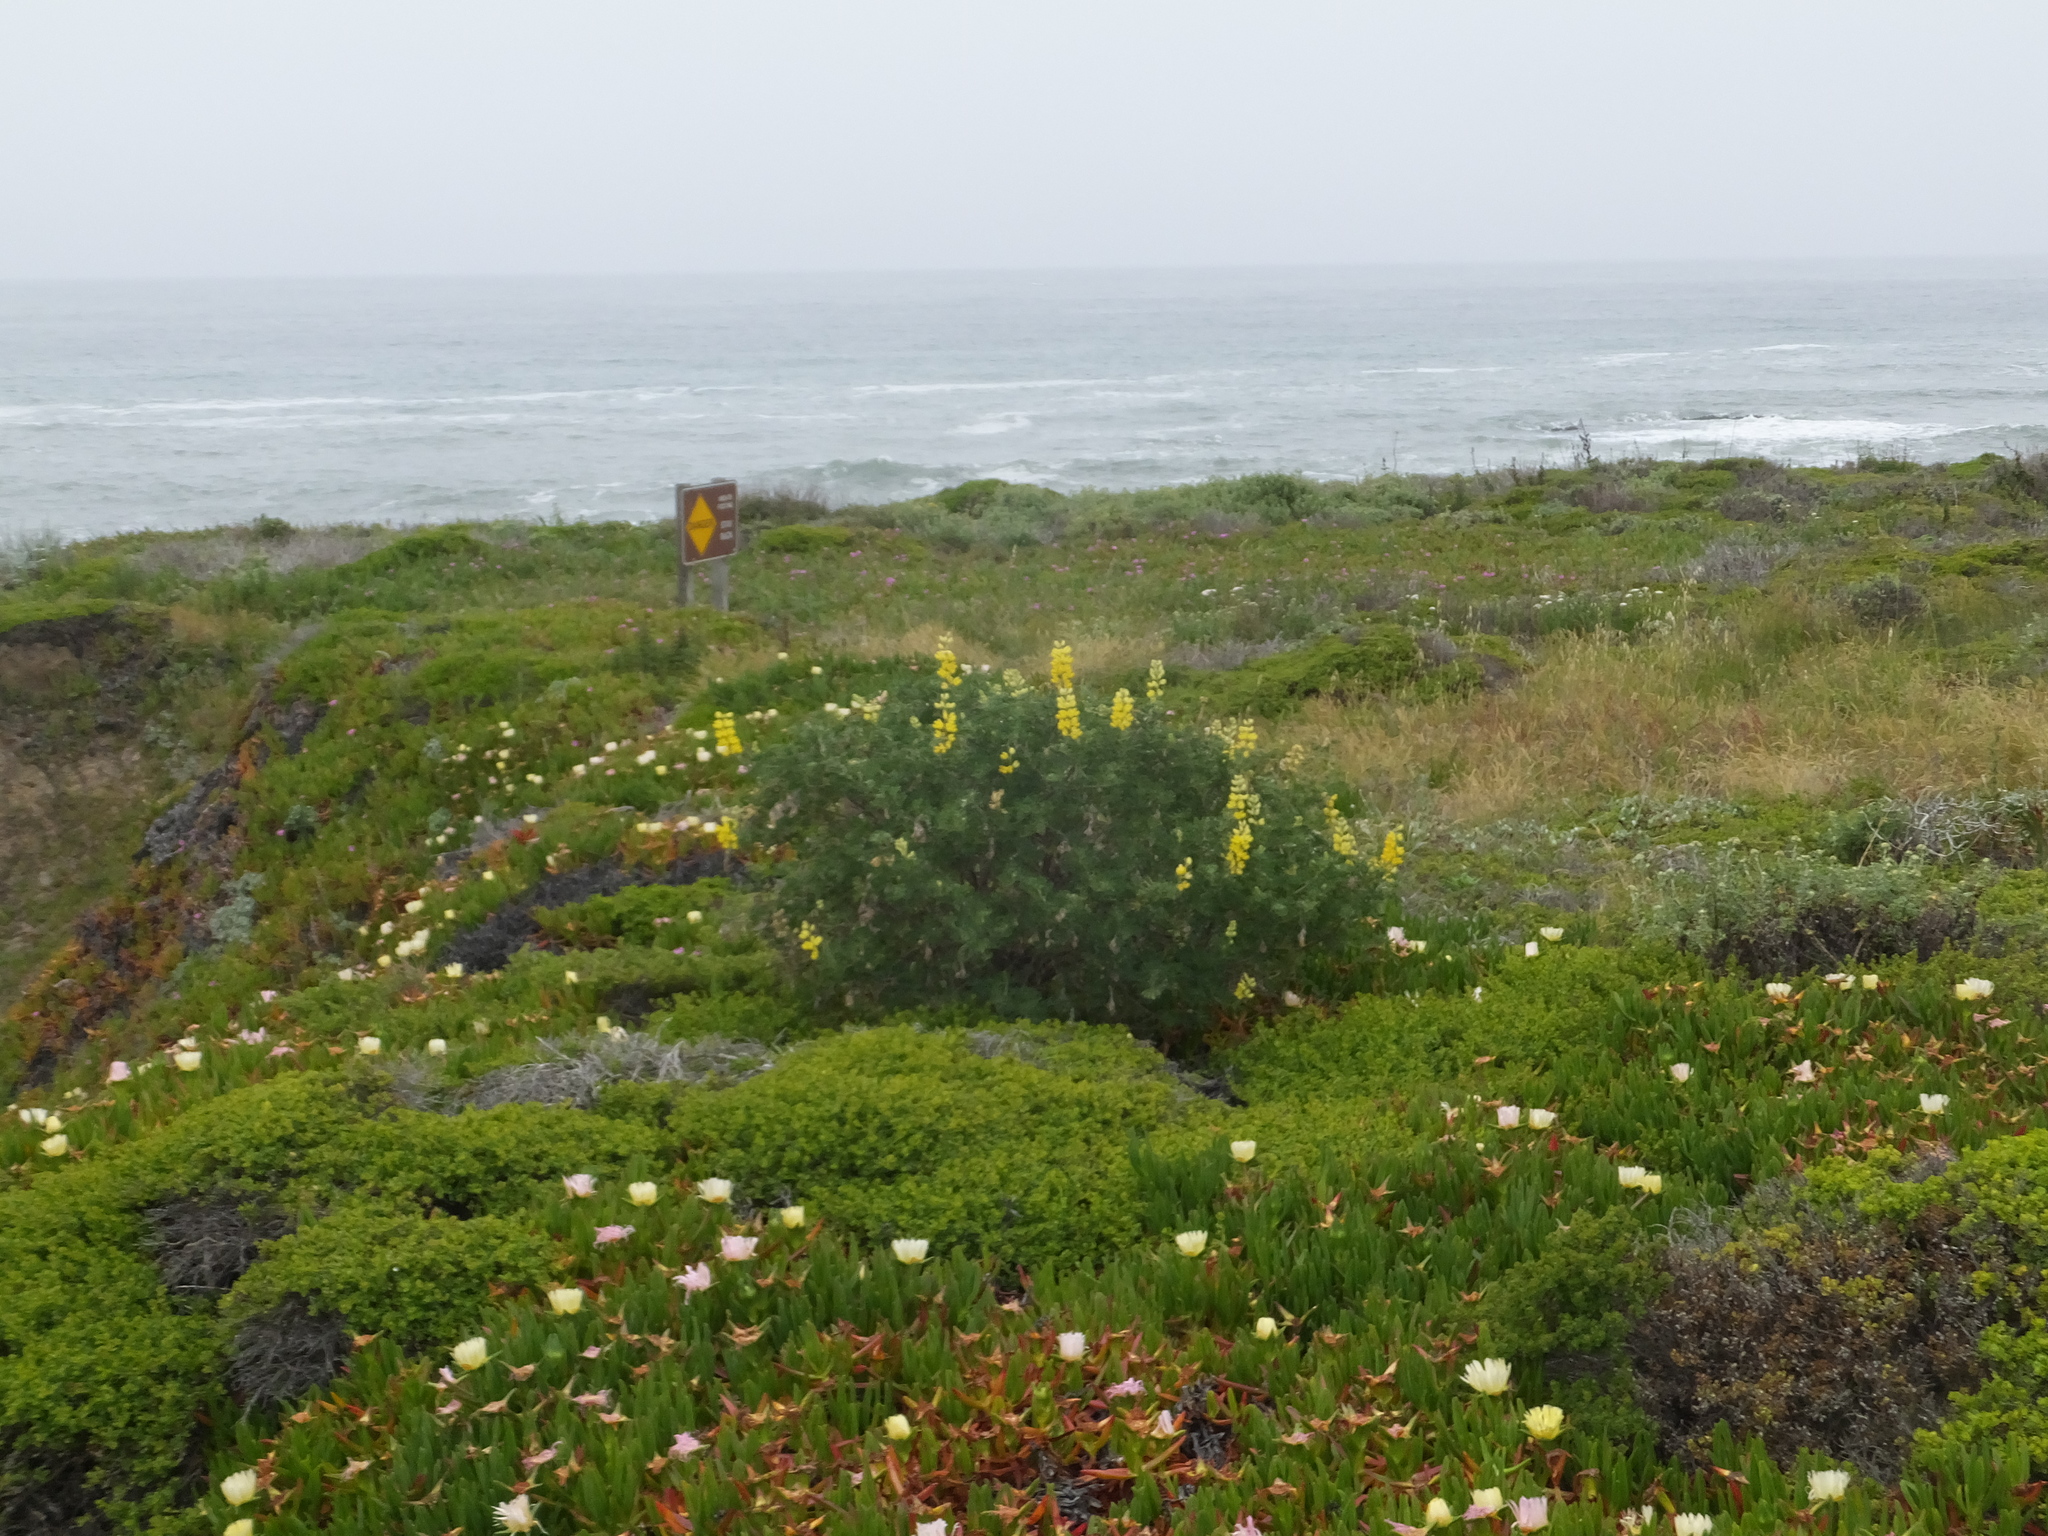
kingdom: Plantae
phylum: Tracheophyta
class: Magnoliopsida
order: Fabales
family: Fabaceae
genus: Lupinus
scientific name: Lupinus arboreus
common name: Yellow bush lupine
